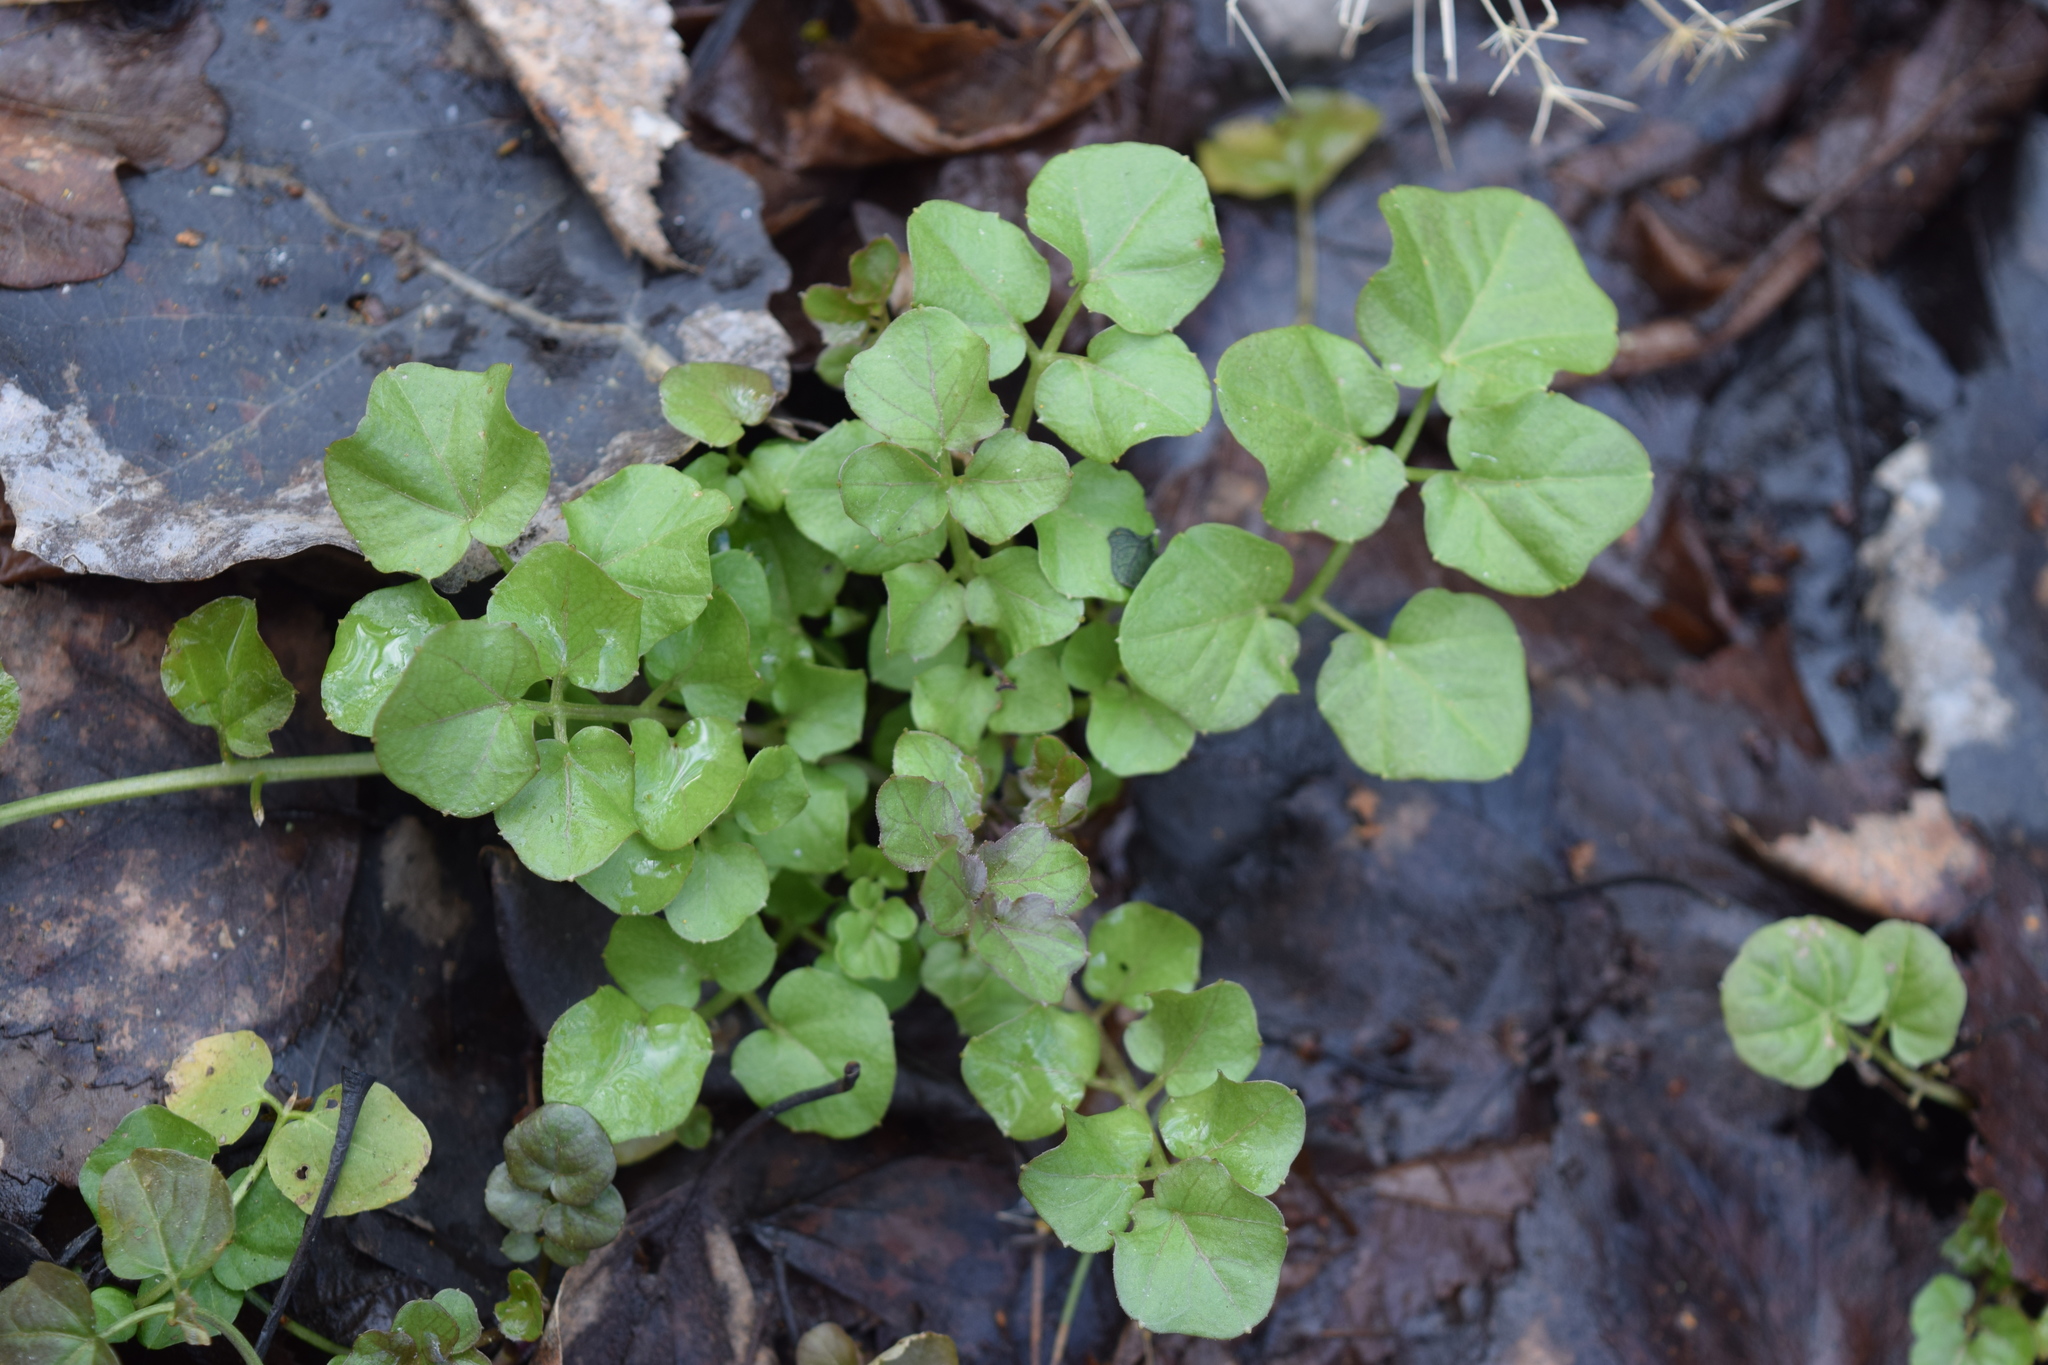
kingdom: Plantae
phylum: Tracheophyta
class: Magnoliopsida
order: Brassicales
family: Brassicaceae
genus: Cardamine
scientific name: Cardamine amara
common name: Large bitter-cress
